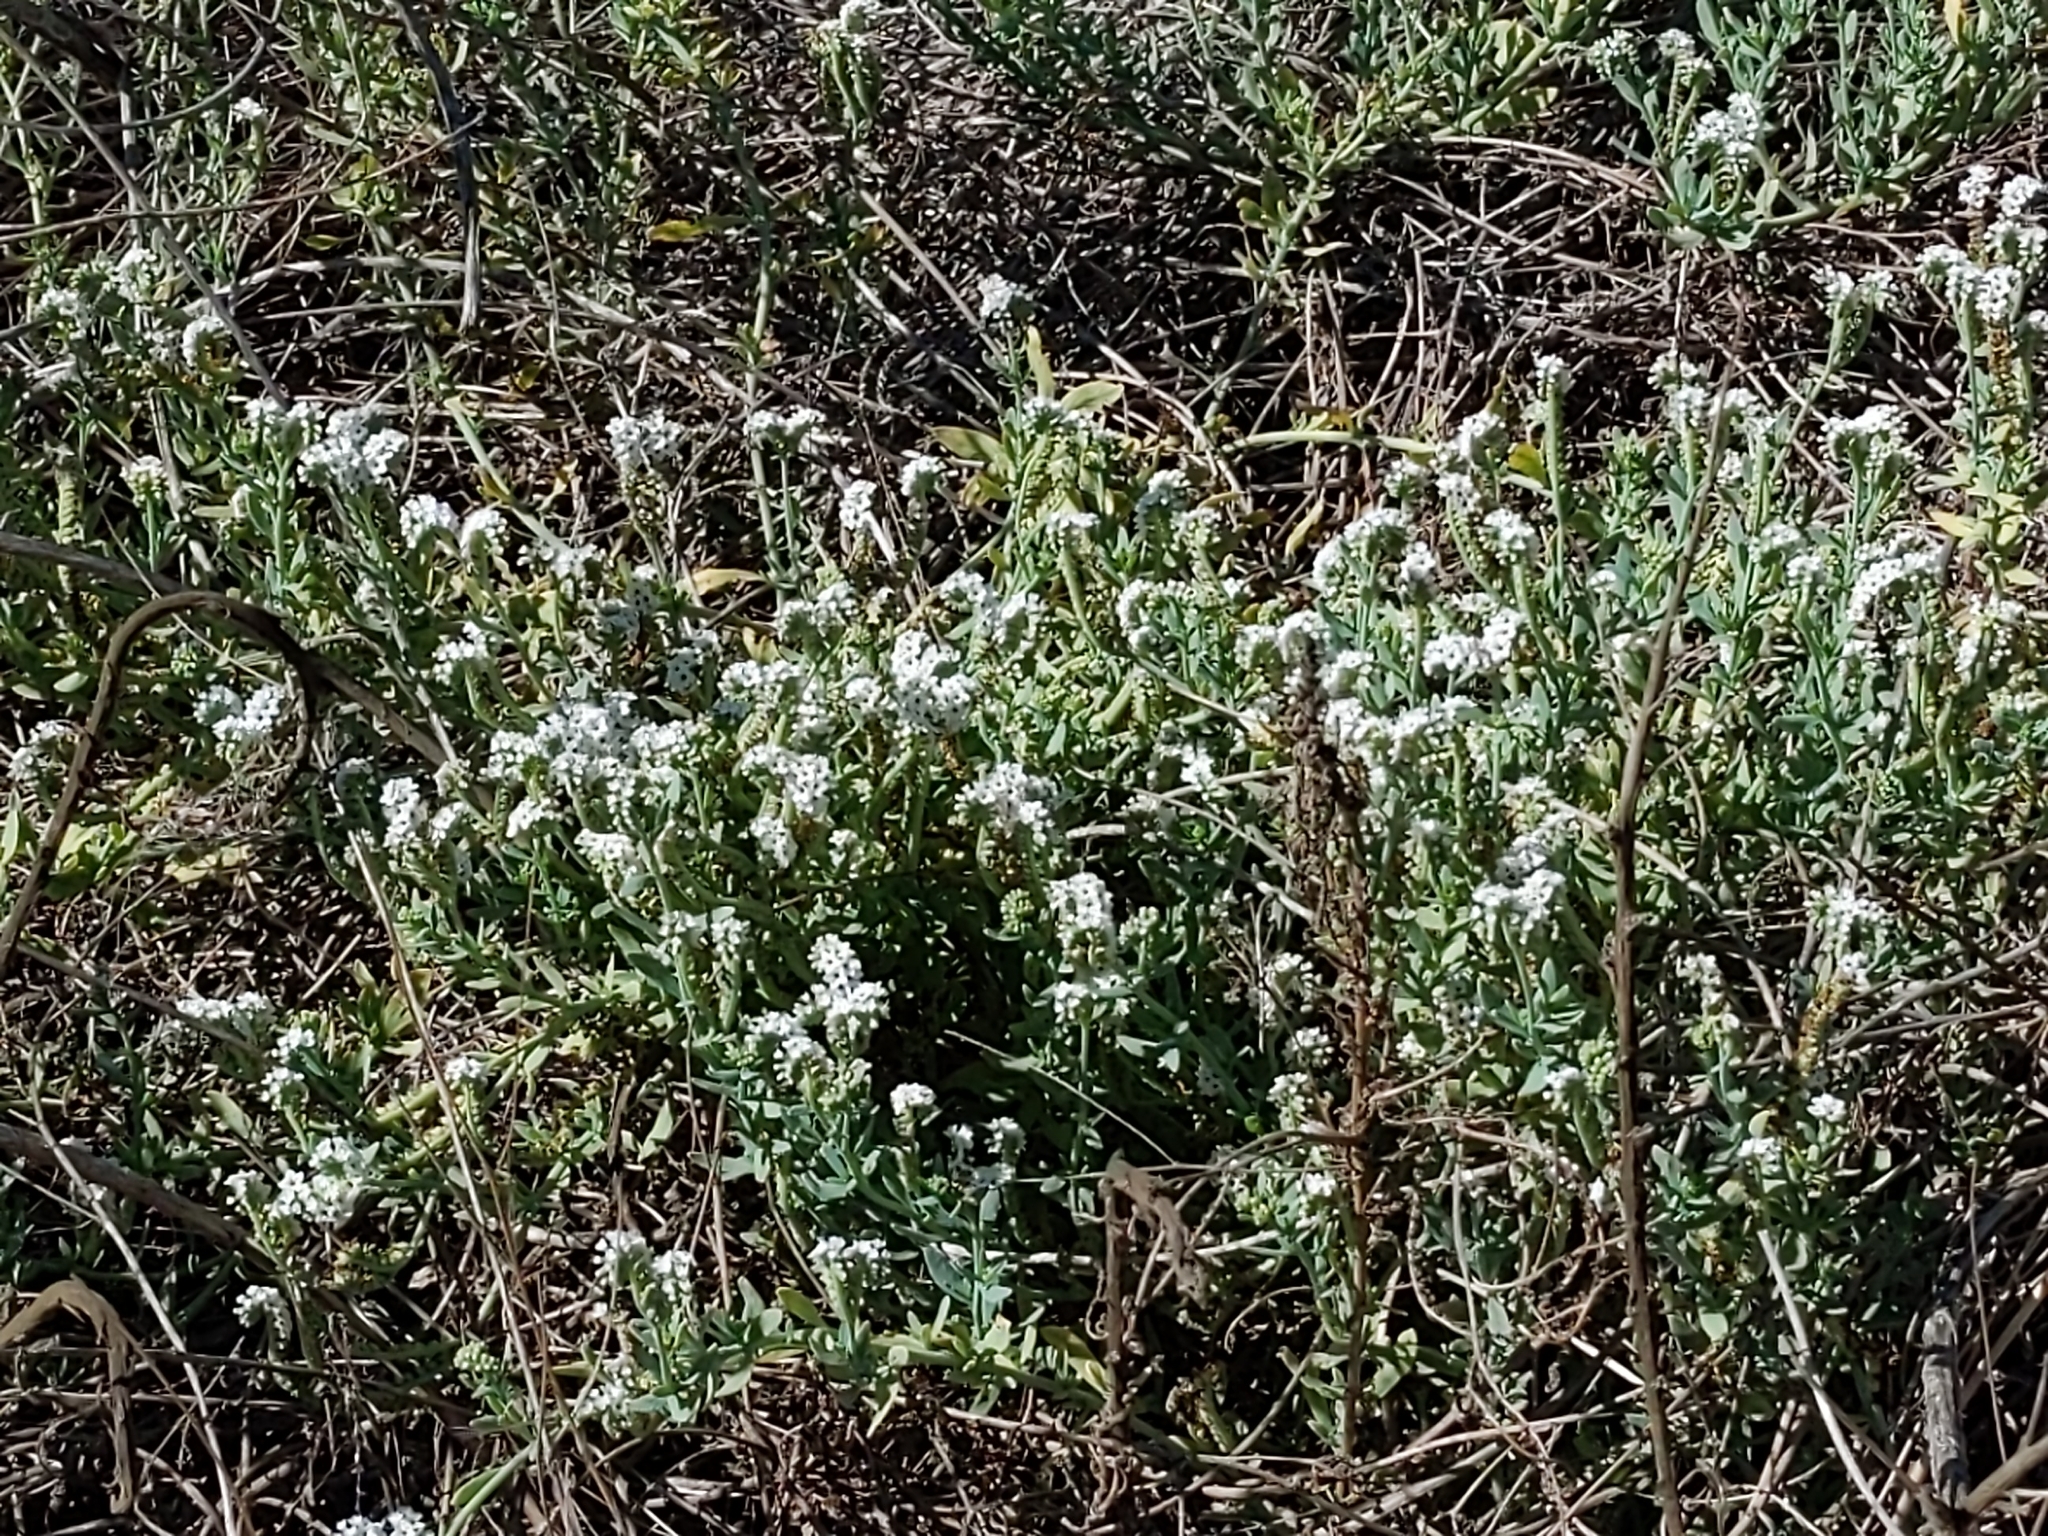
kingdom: Plantae
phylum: Tracheophyta
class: Magnoliopsida
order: Boraginales
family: Heliotropiaceae
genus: Heliotropium
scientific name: Heliotropium curassavicum
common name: Seaside heliotrope
